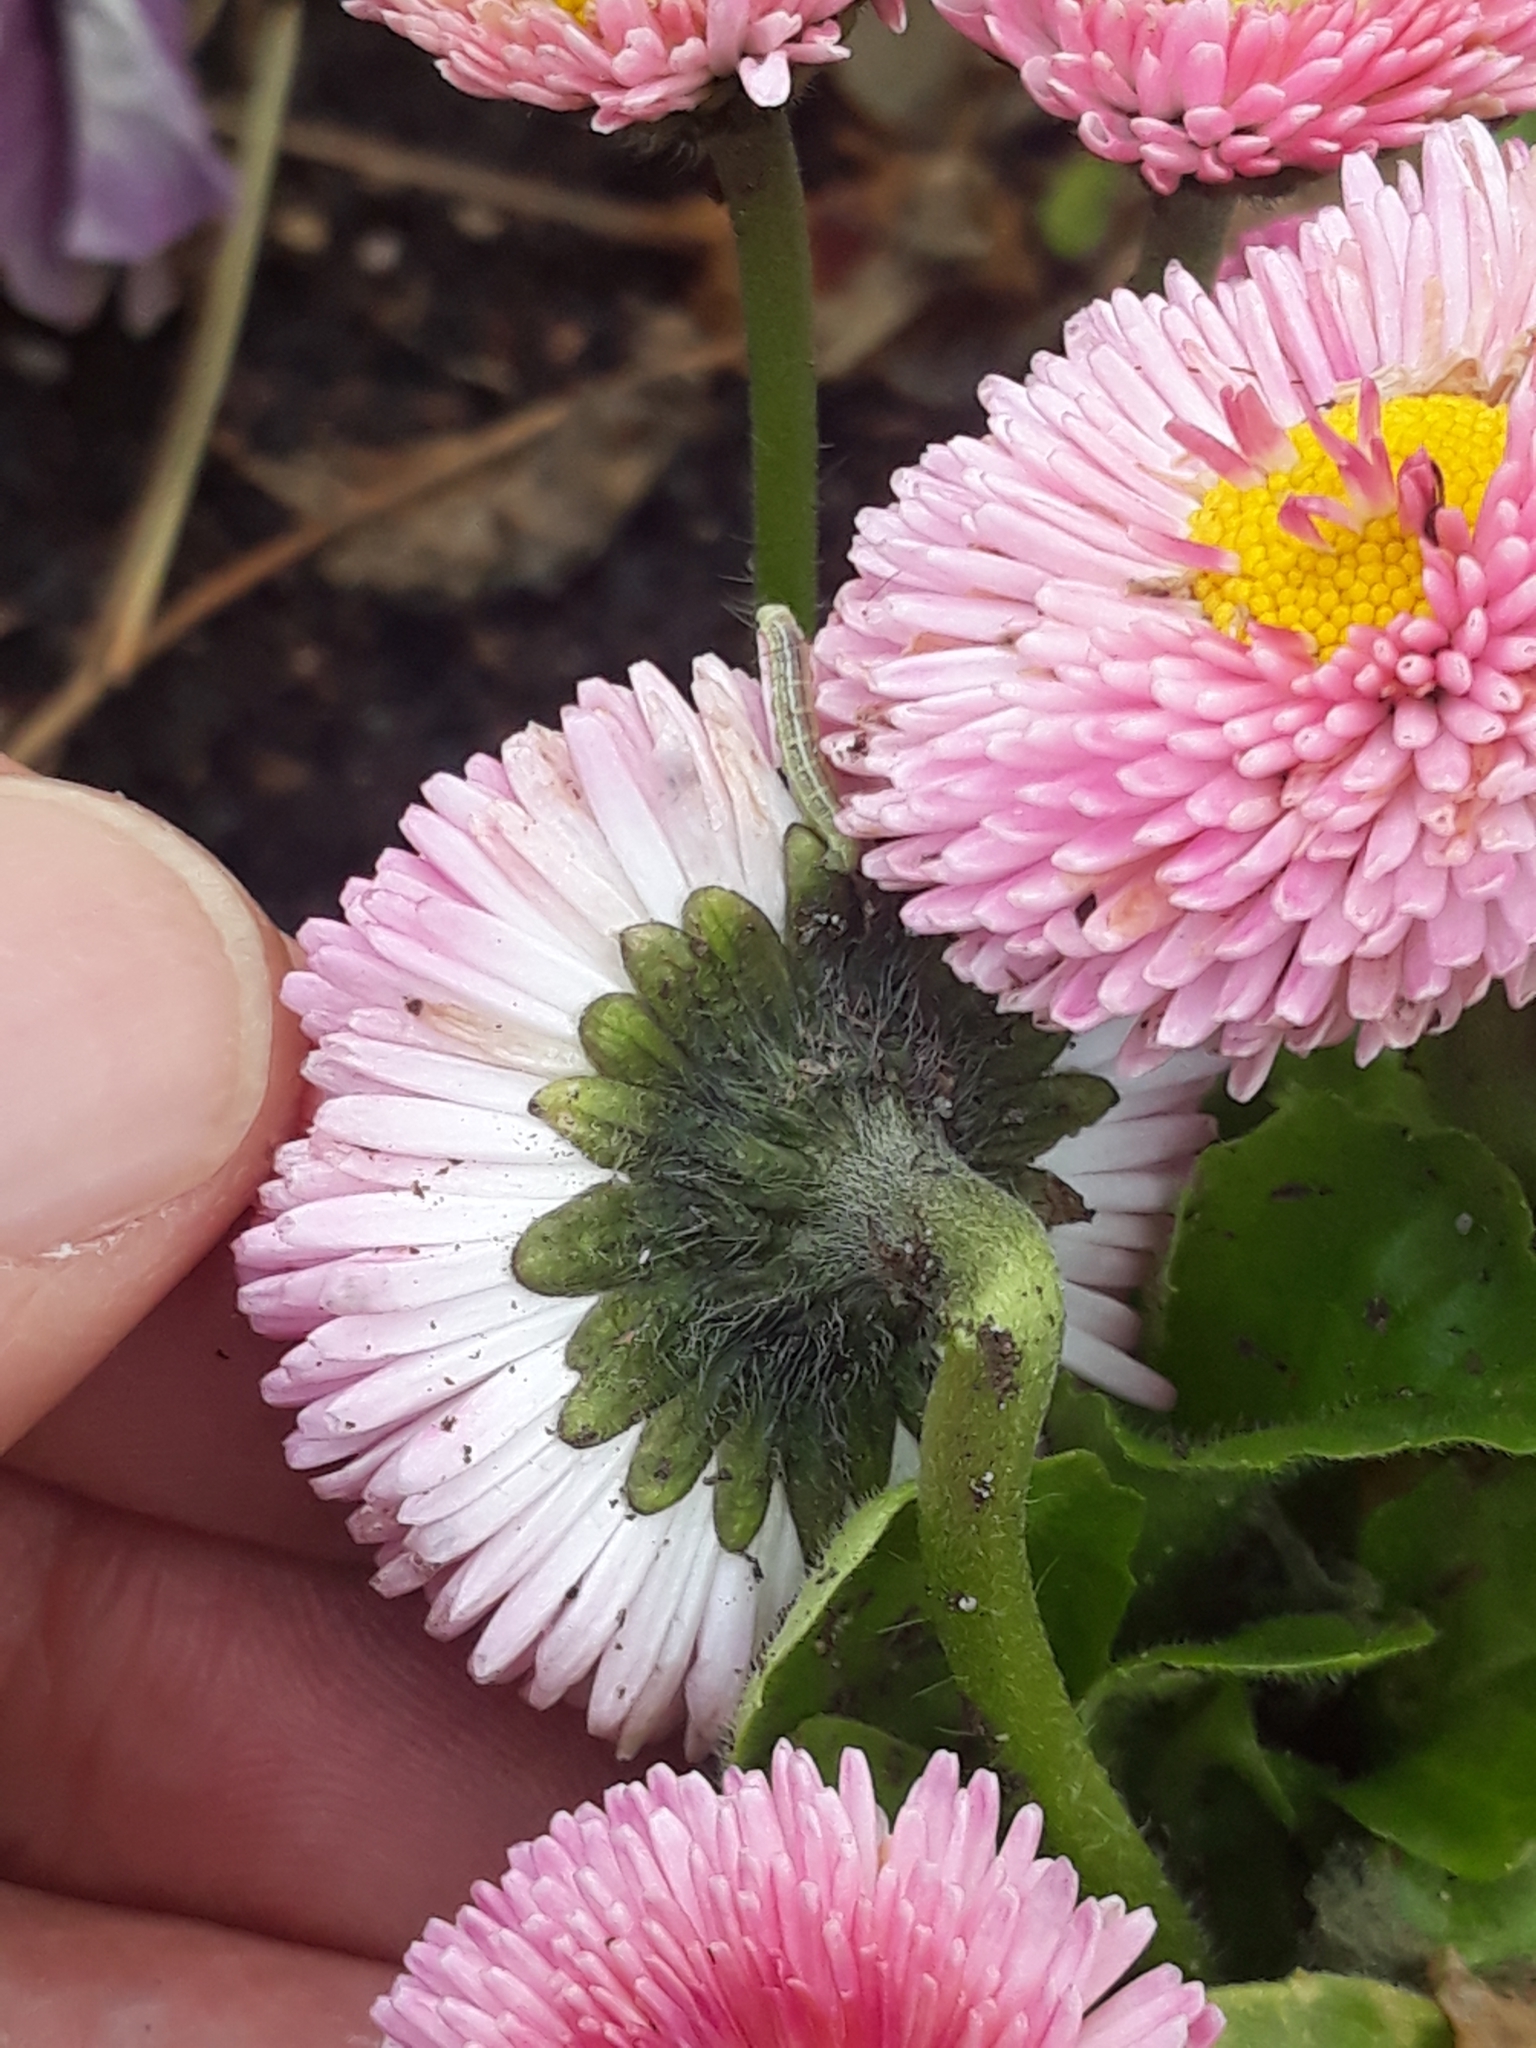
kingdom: Plantae
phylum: Tracheophyta
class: Magnoliopsida
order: Asterales
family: Asteraceae
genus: Bellis
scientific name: Bellis perennis
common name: Lawndaisy
